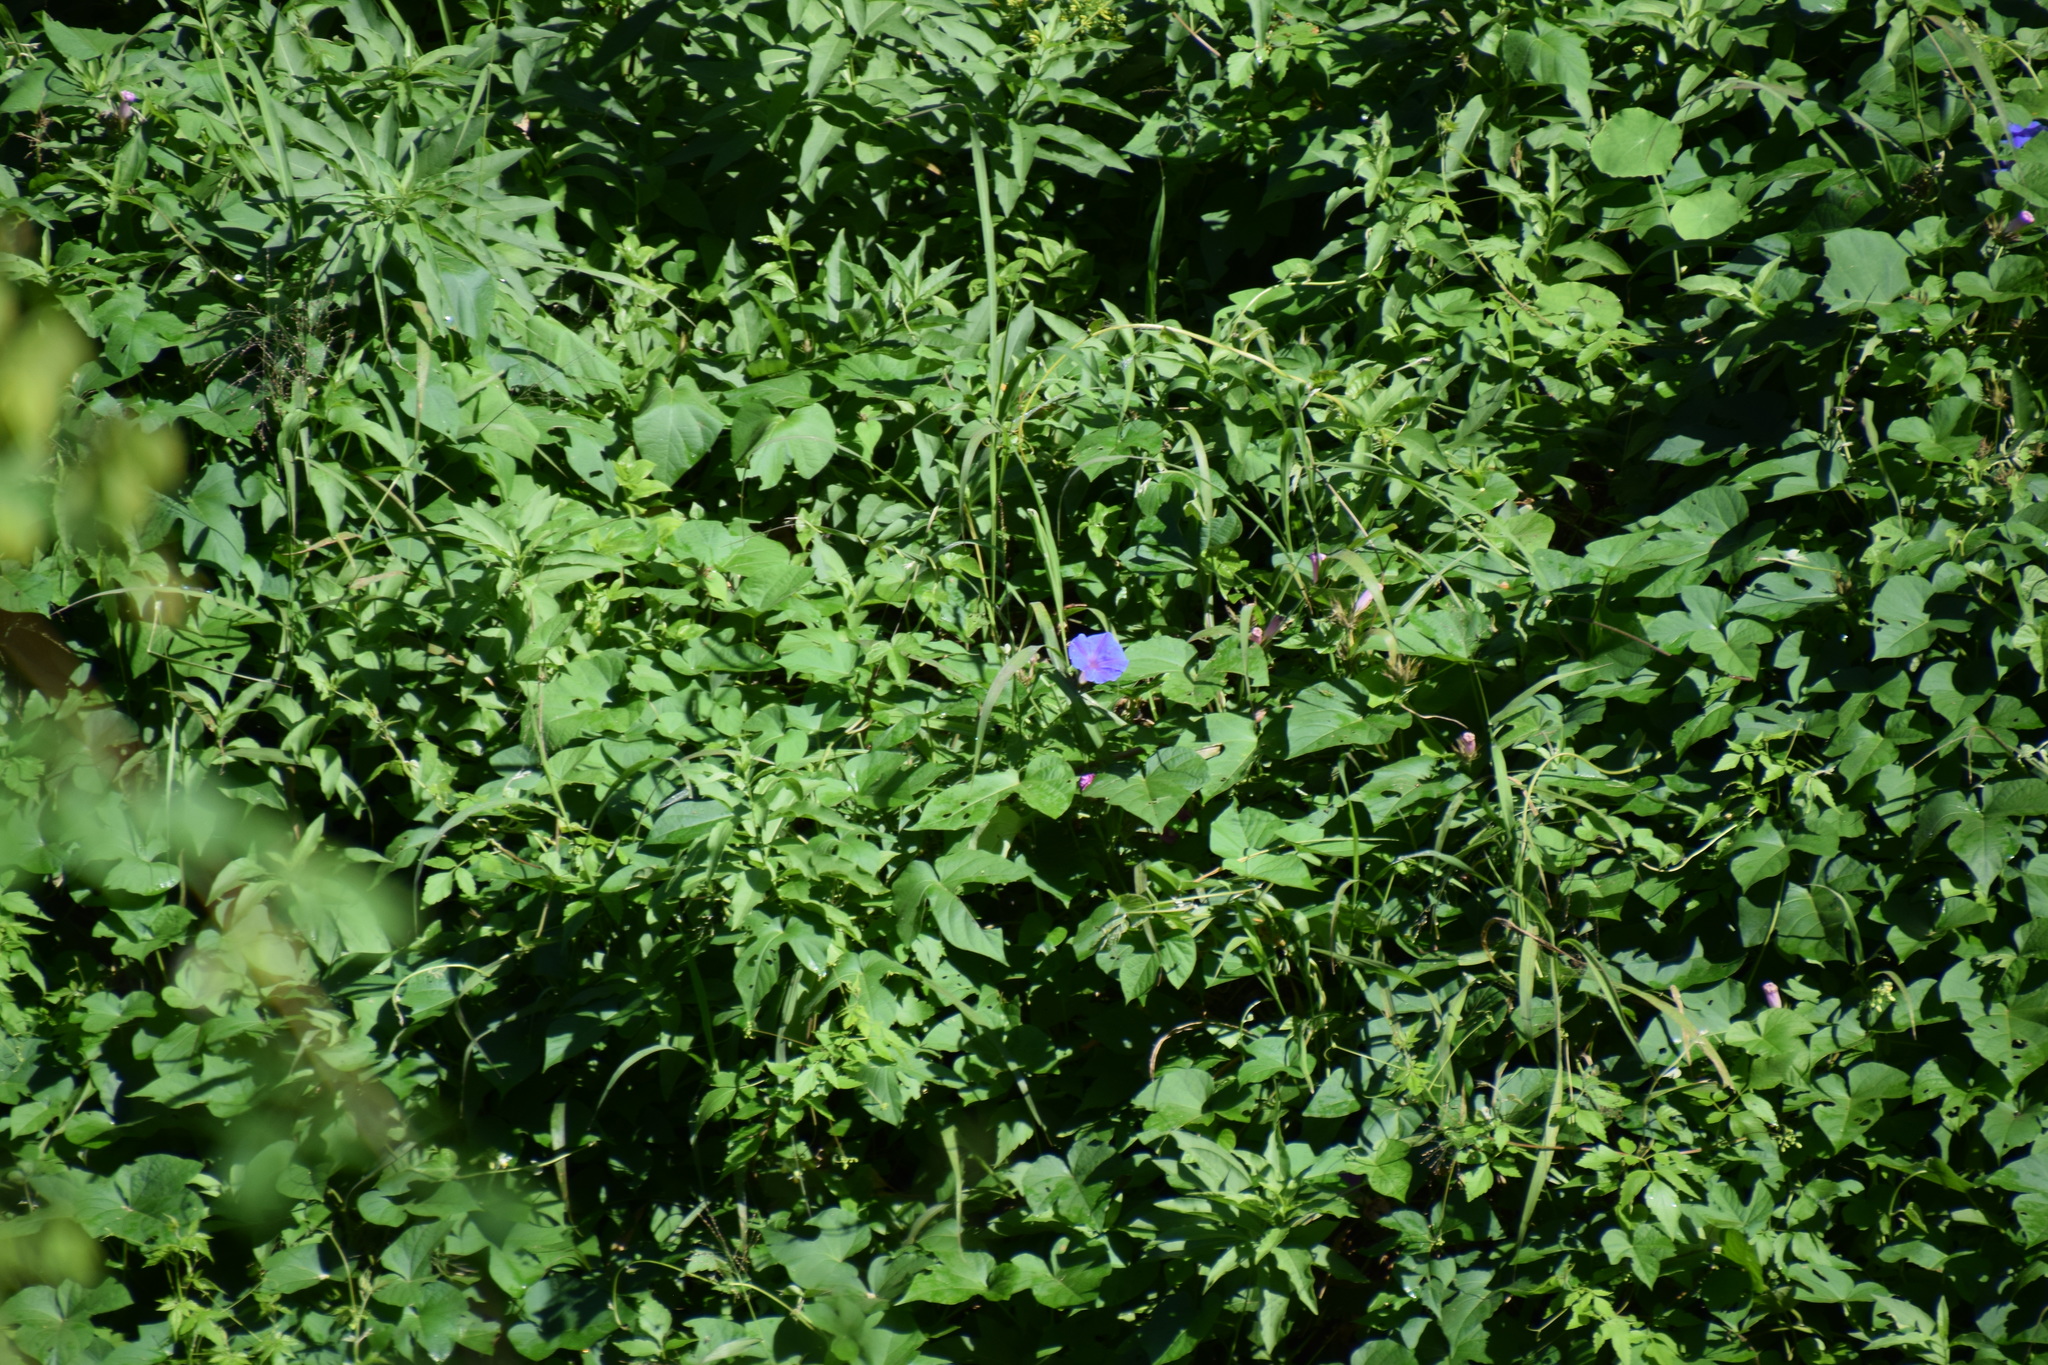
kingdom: Plantae
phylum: Tracheophyta
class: Magnoliopsida
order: Solanales
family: Convolvulaceae
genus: Ipomoea
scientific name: Ipomoea indica
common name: Blue dawnflower
